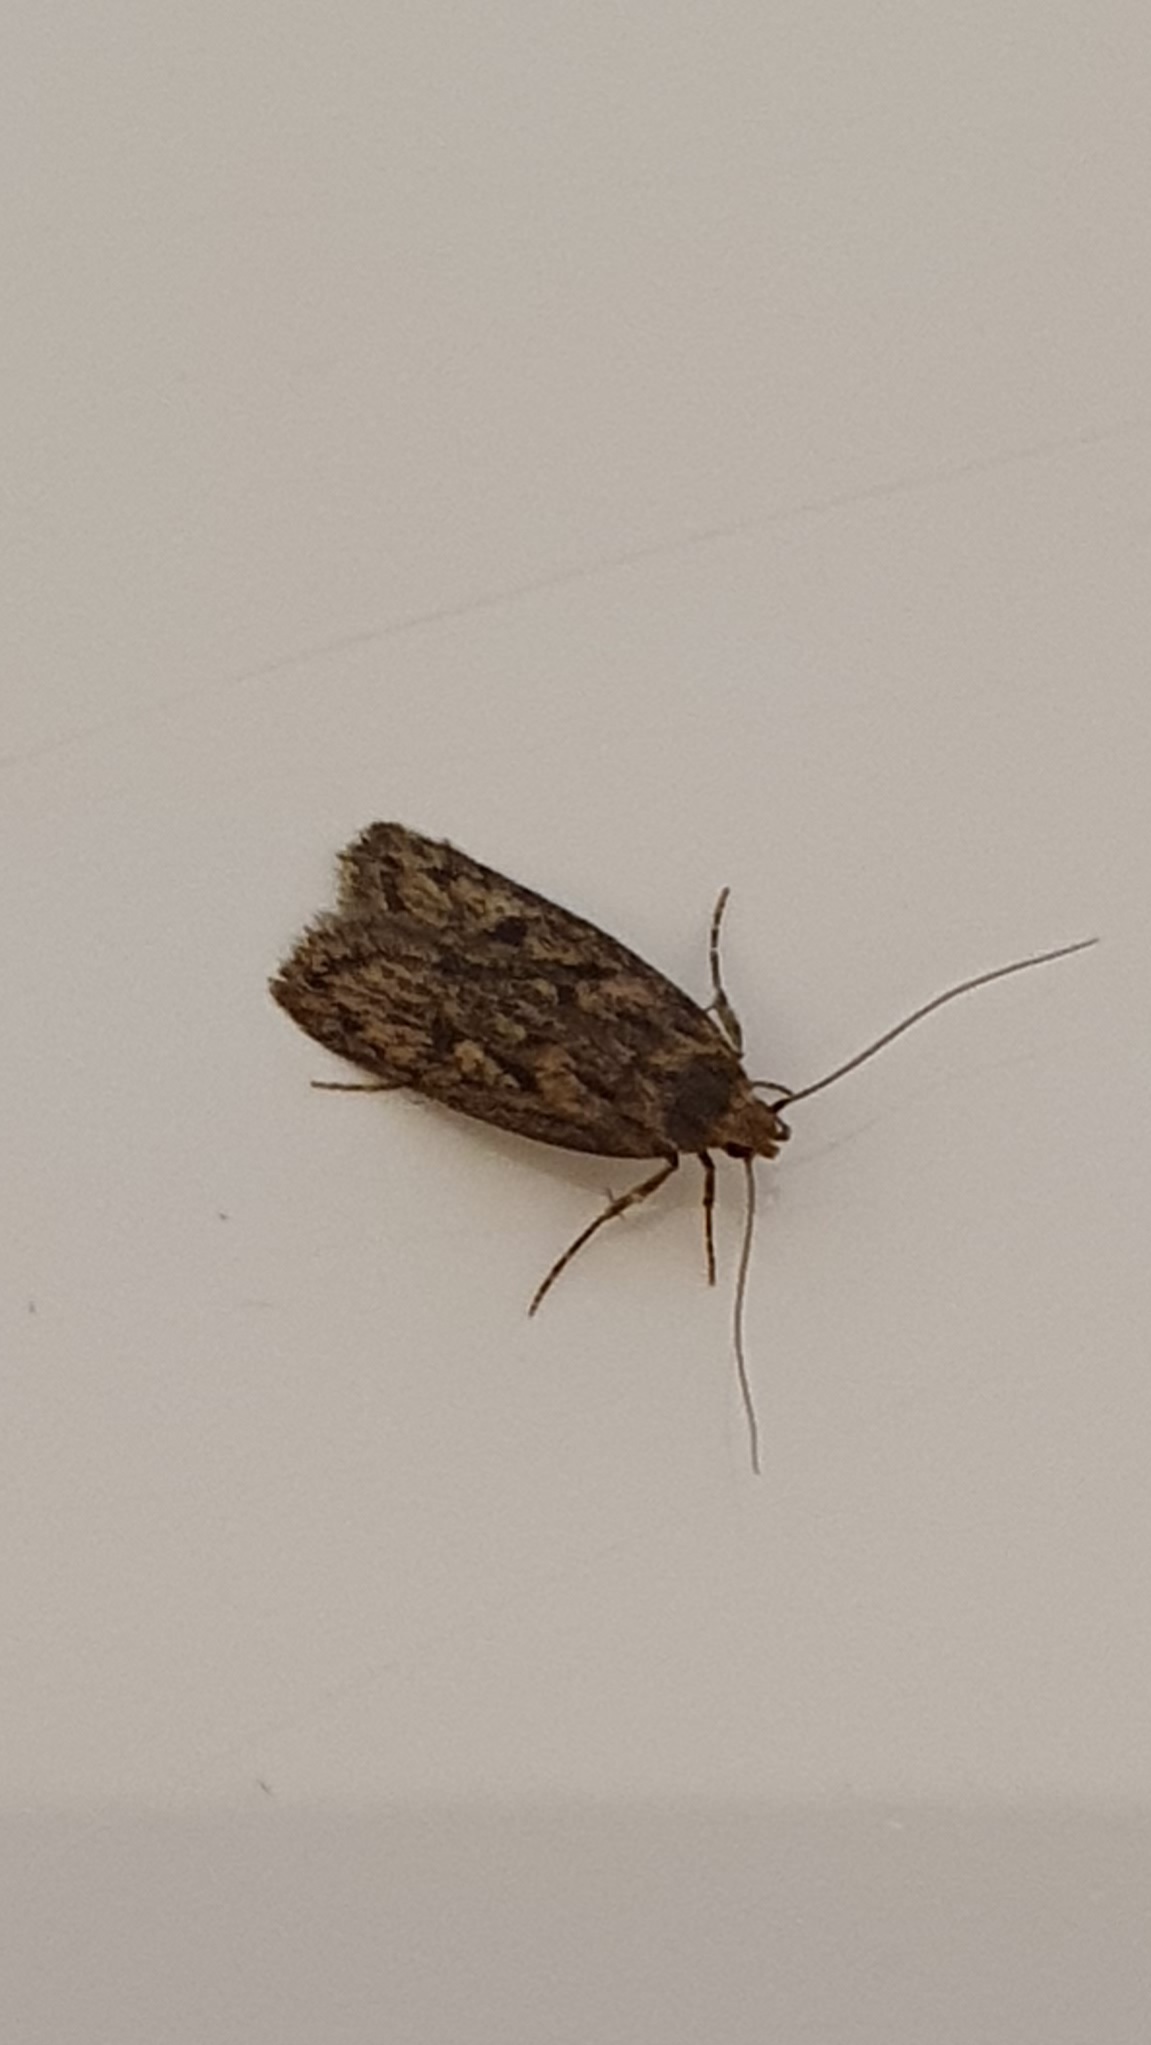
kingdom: Animalia
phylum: Arthropoda
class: Insecta
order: Lepidoptera
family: Oecophoridae
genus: Hofmannophila
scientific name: Hofmannophila pseudospretella
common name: Brown house moth
